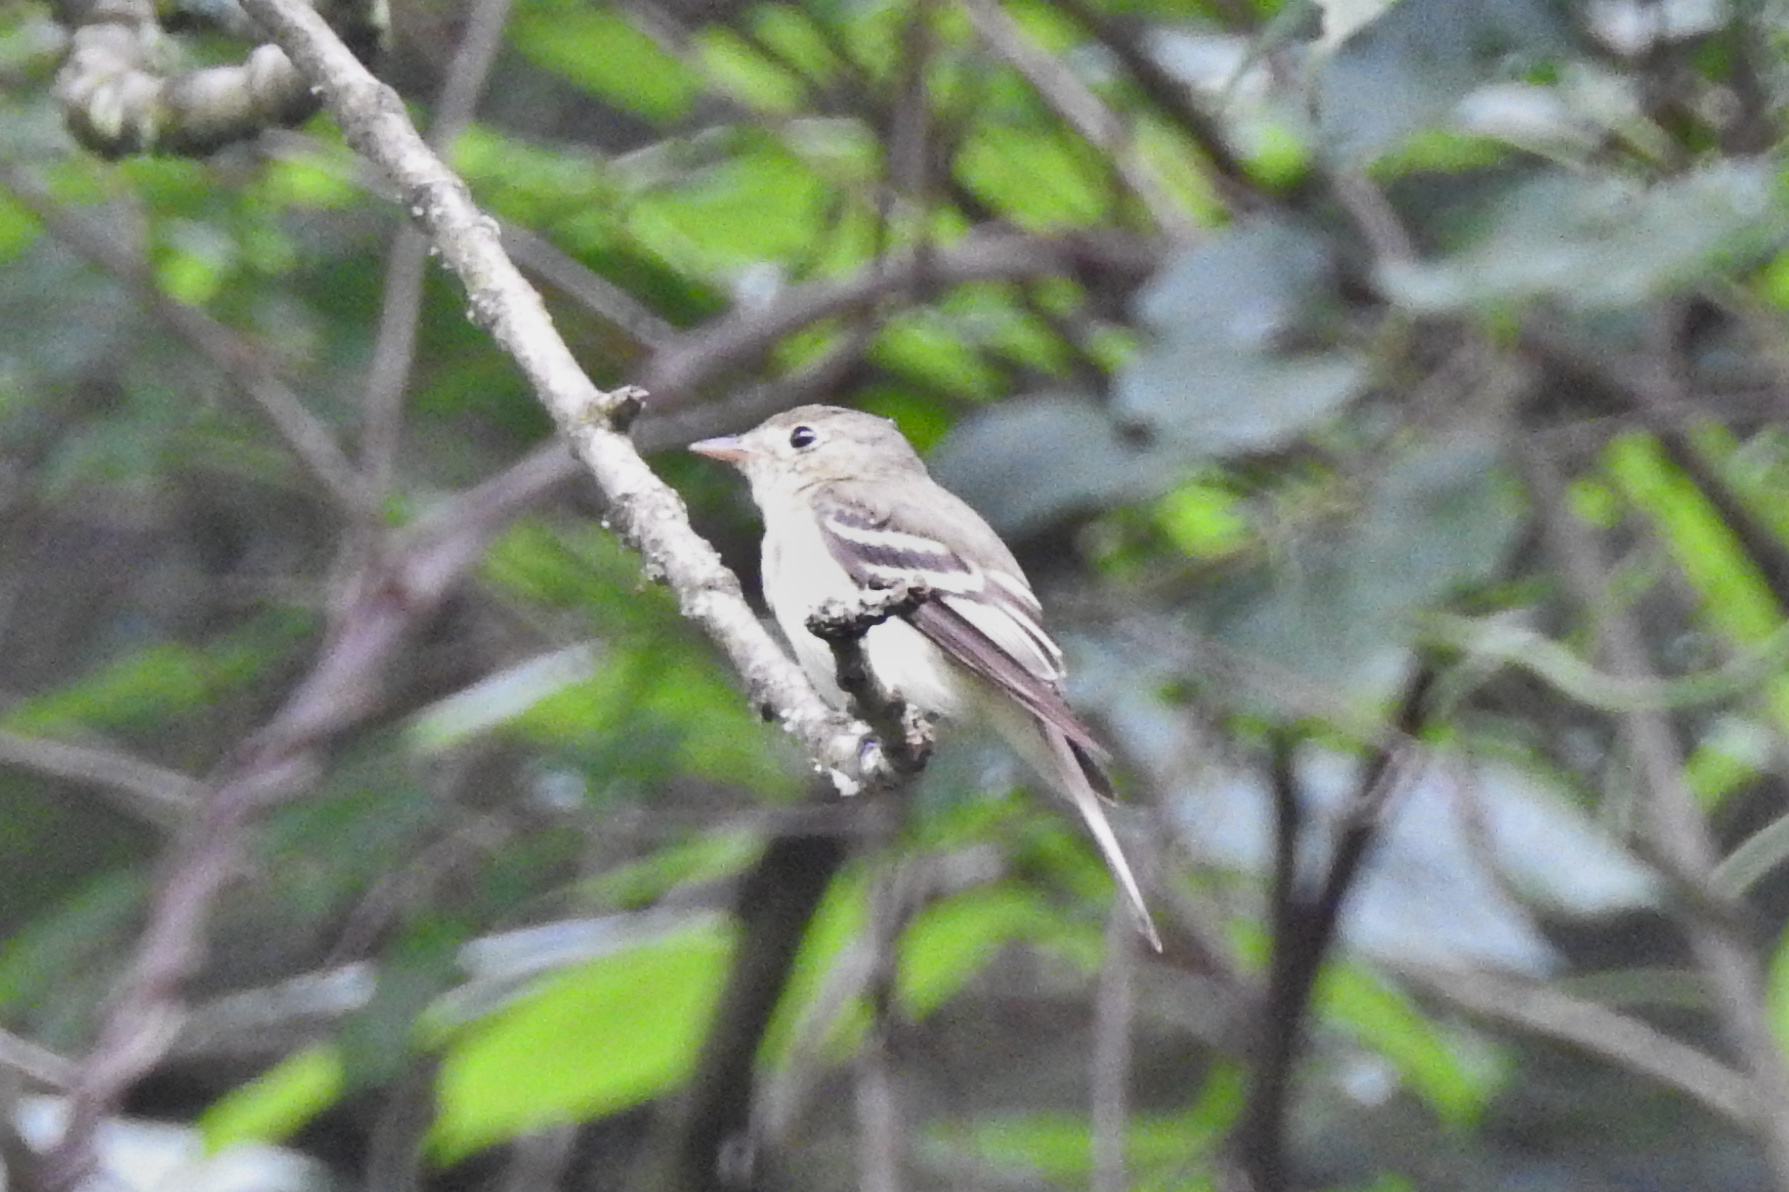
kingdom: Animalia
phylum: Chordata
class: Aves
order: Passeriformes
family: Tyrannidae
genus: Empidonax
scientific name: Empidonax virescens
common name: Acadian flycatcher
